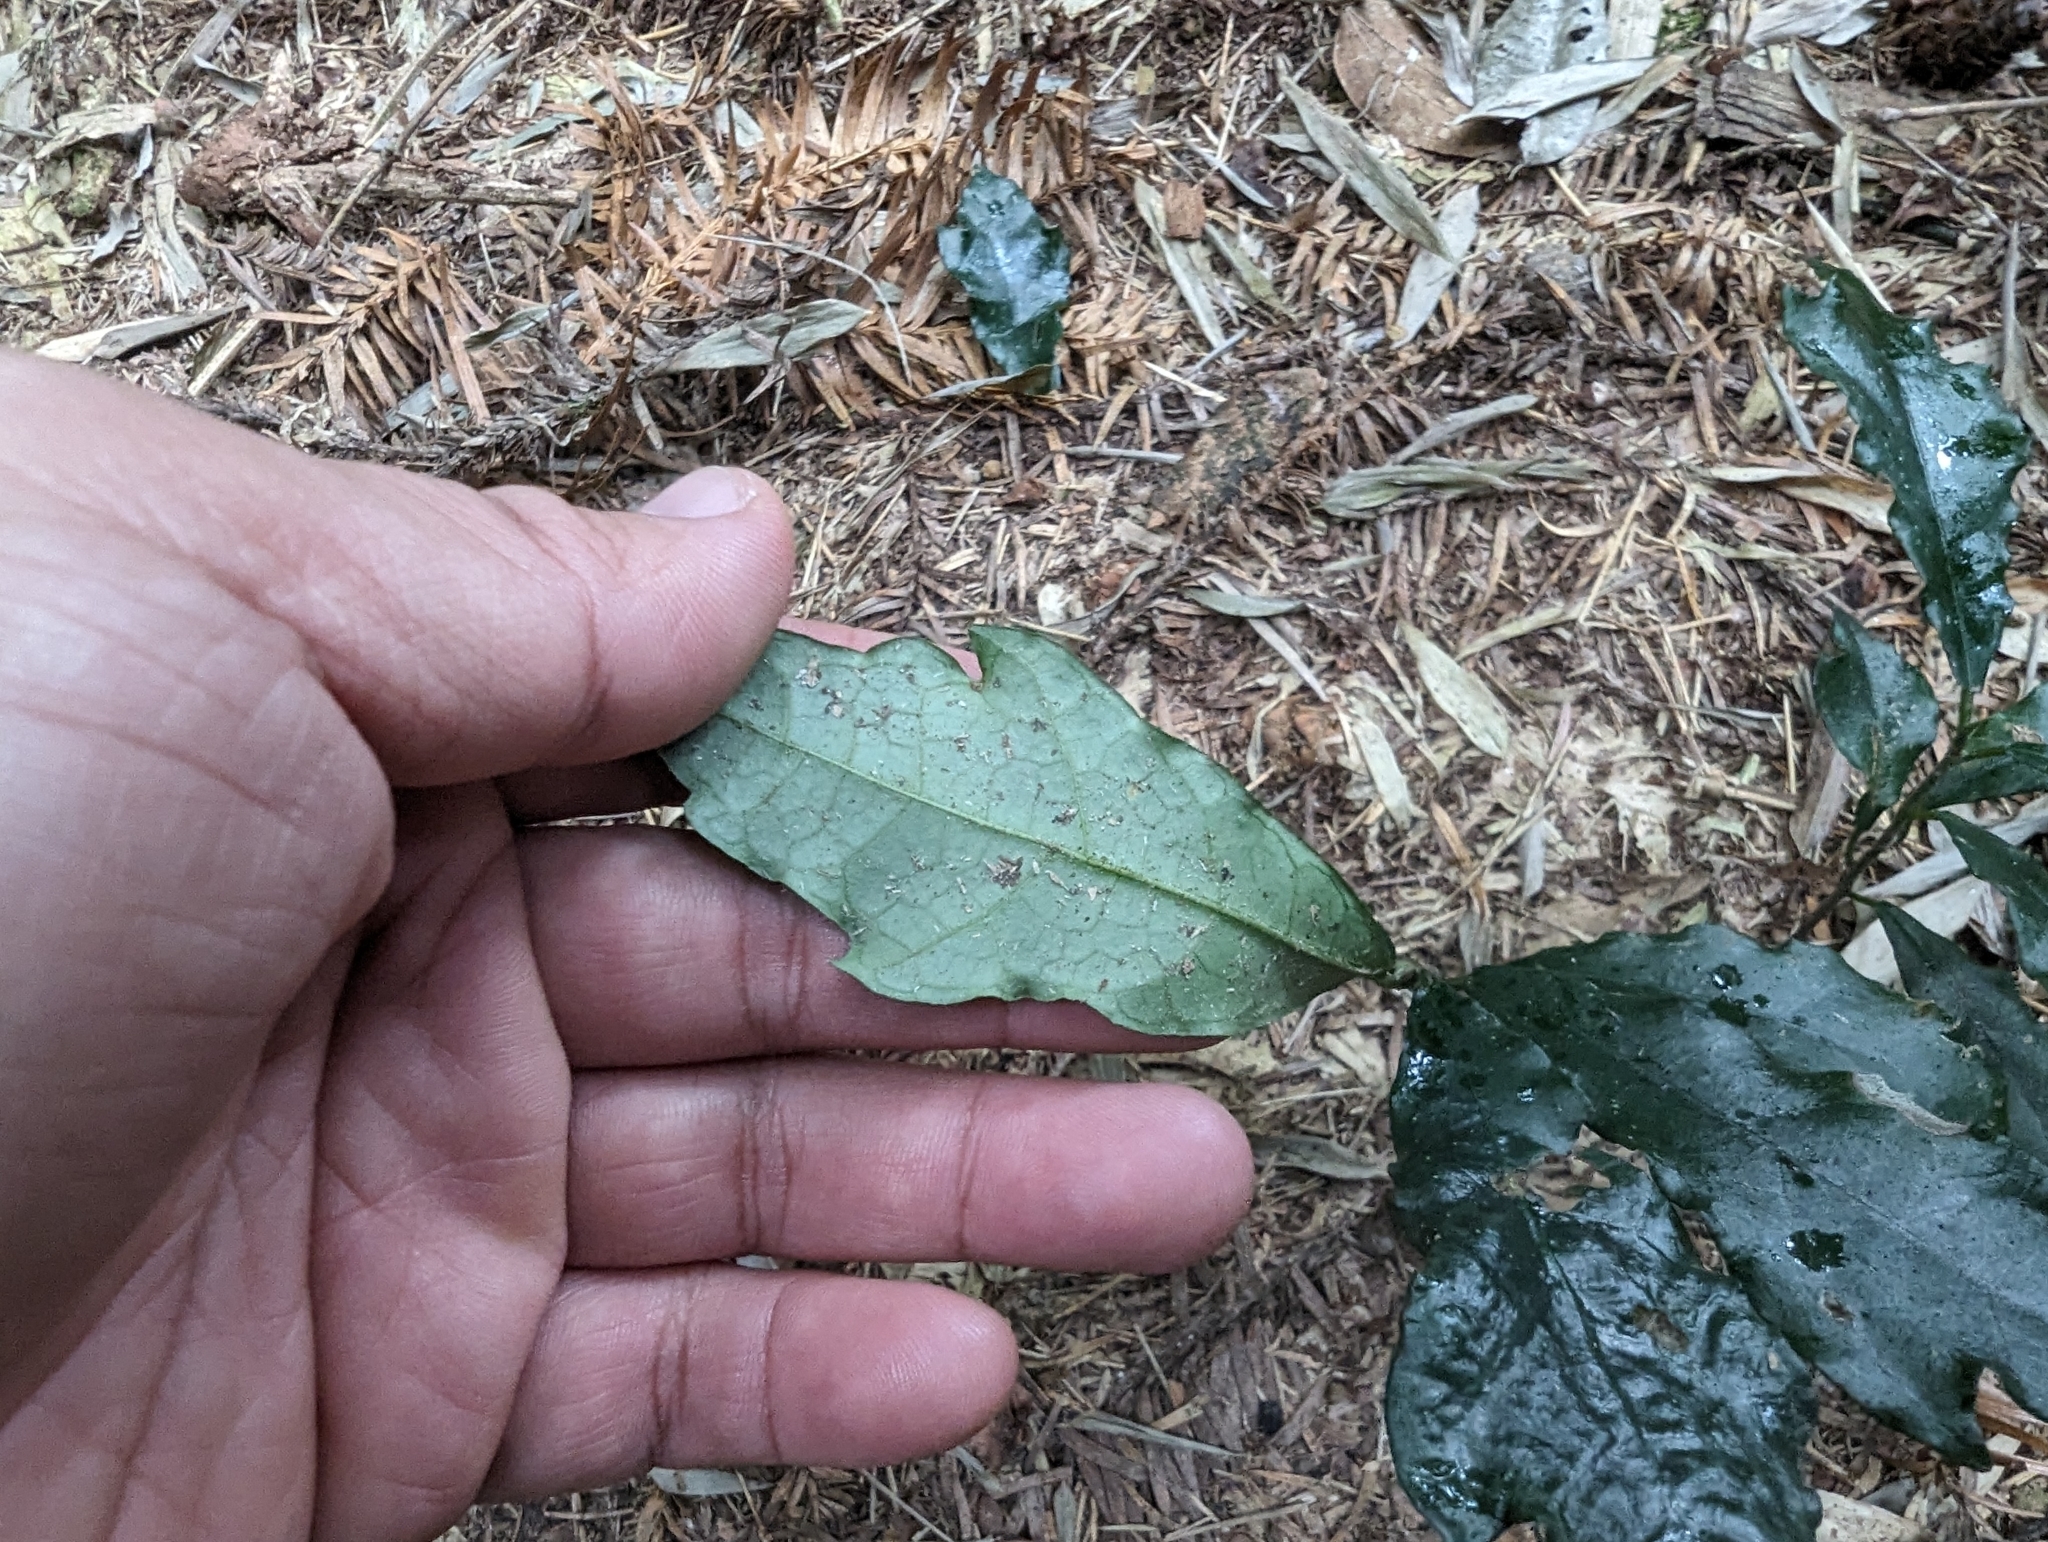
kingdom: Plantae
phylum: Tracheophyta
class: Magnoliopsida
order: Rosales
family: Moraceae
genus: Ficus
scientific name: Ficus formosana
